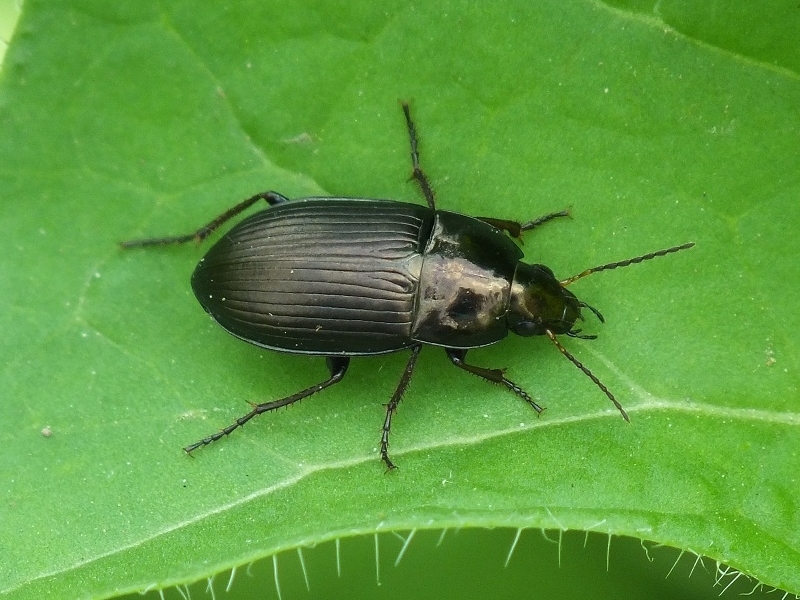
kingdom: Animalia
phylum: Arthropoda
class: Insecta
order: Coleoptera
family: Carabidae
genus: Amara
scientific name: Amara similata
